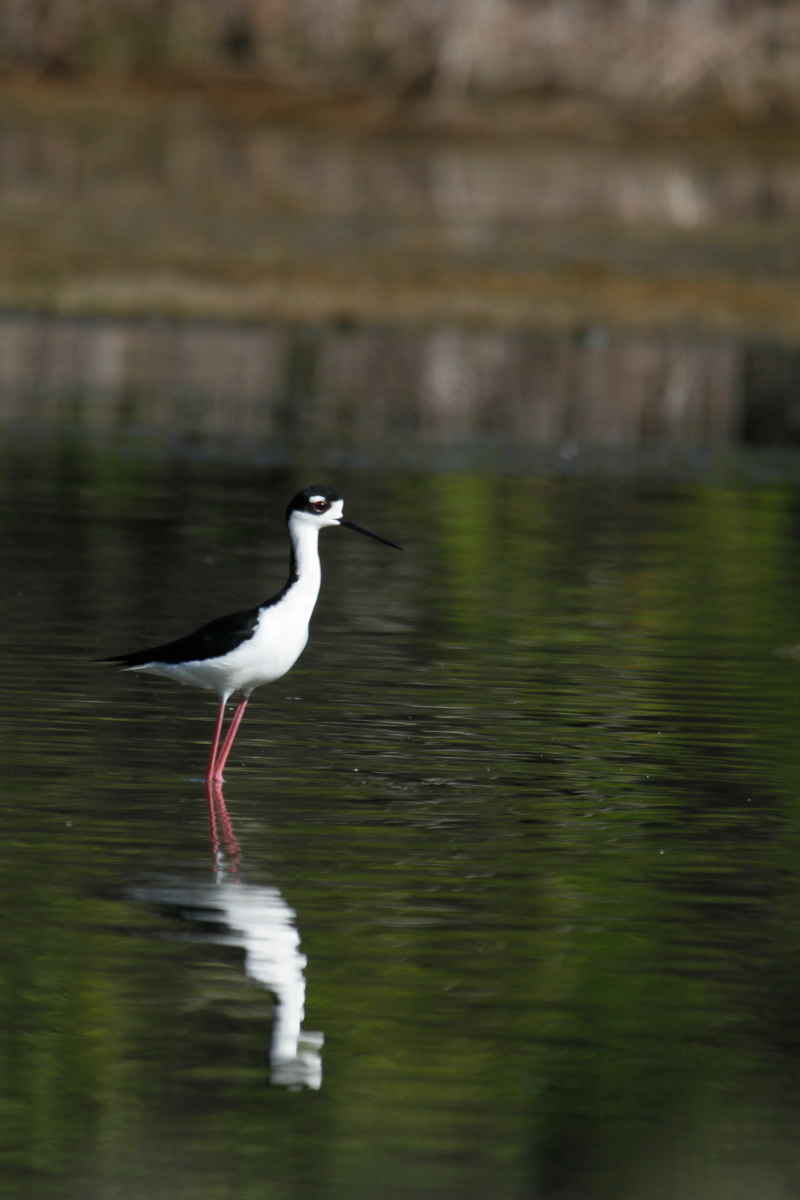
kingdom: Animalia
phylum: Chordata
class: Aves
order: Charadriiformes
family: Recurvirostridae
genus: Himantopus
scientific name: Himantopus mexicanus
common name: Black-necked stilt
